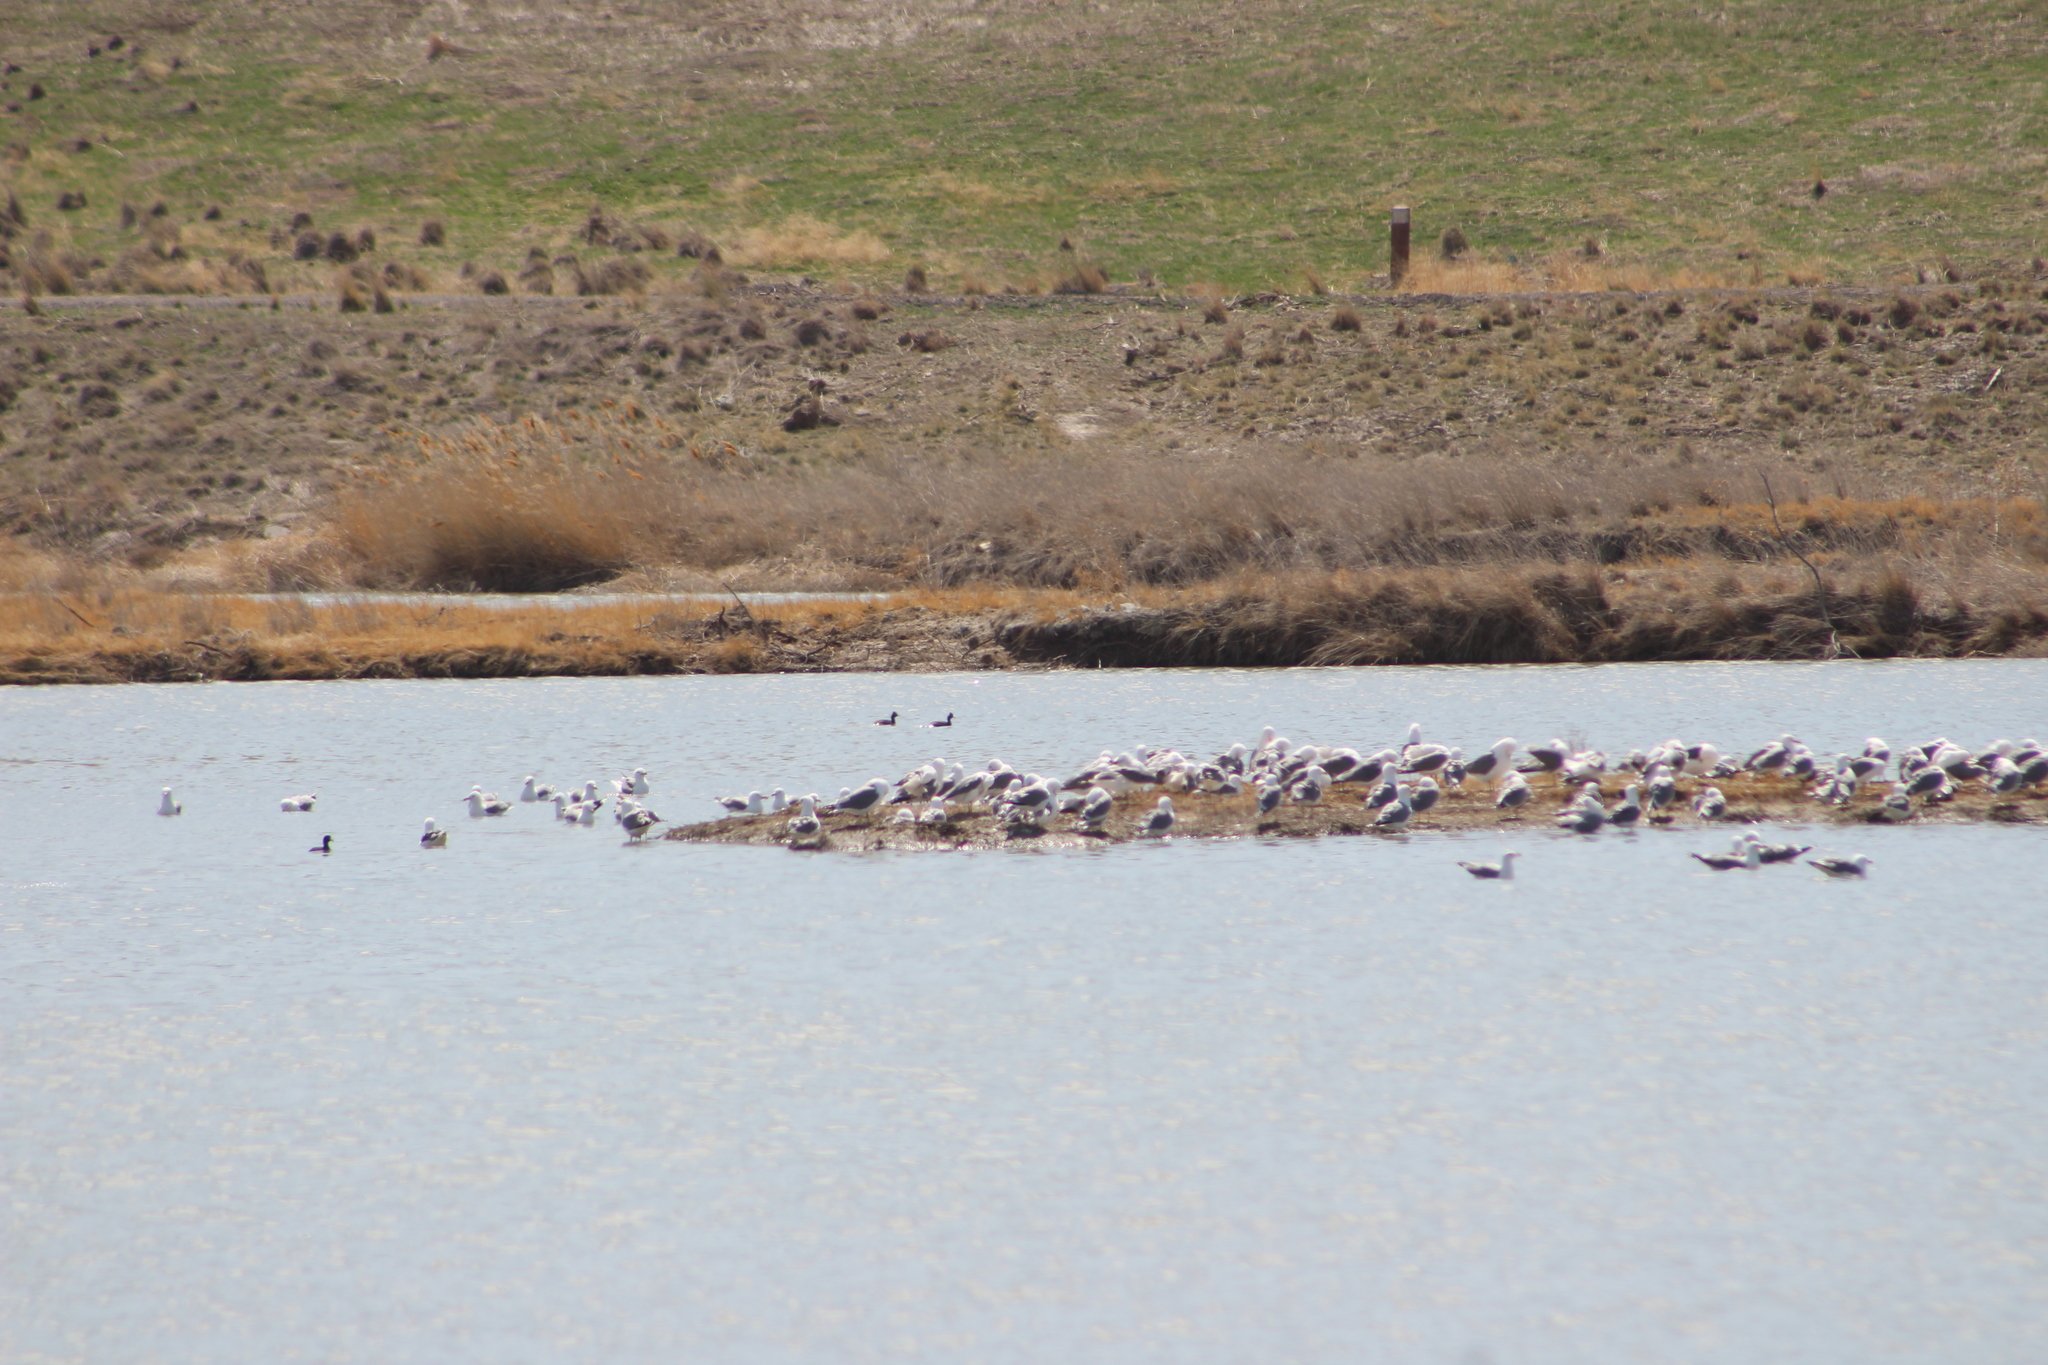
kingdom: Animalia
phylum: Chordata
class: Aves
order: Charadriiformes
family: Laridae
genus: Larus
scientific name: Larus californicus
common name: California gull
